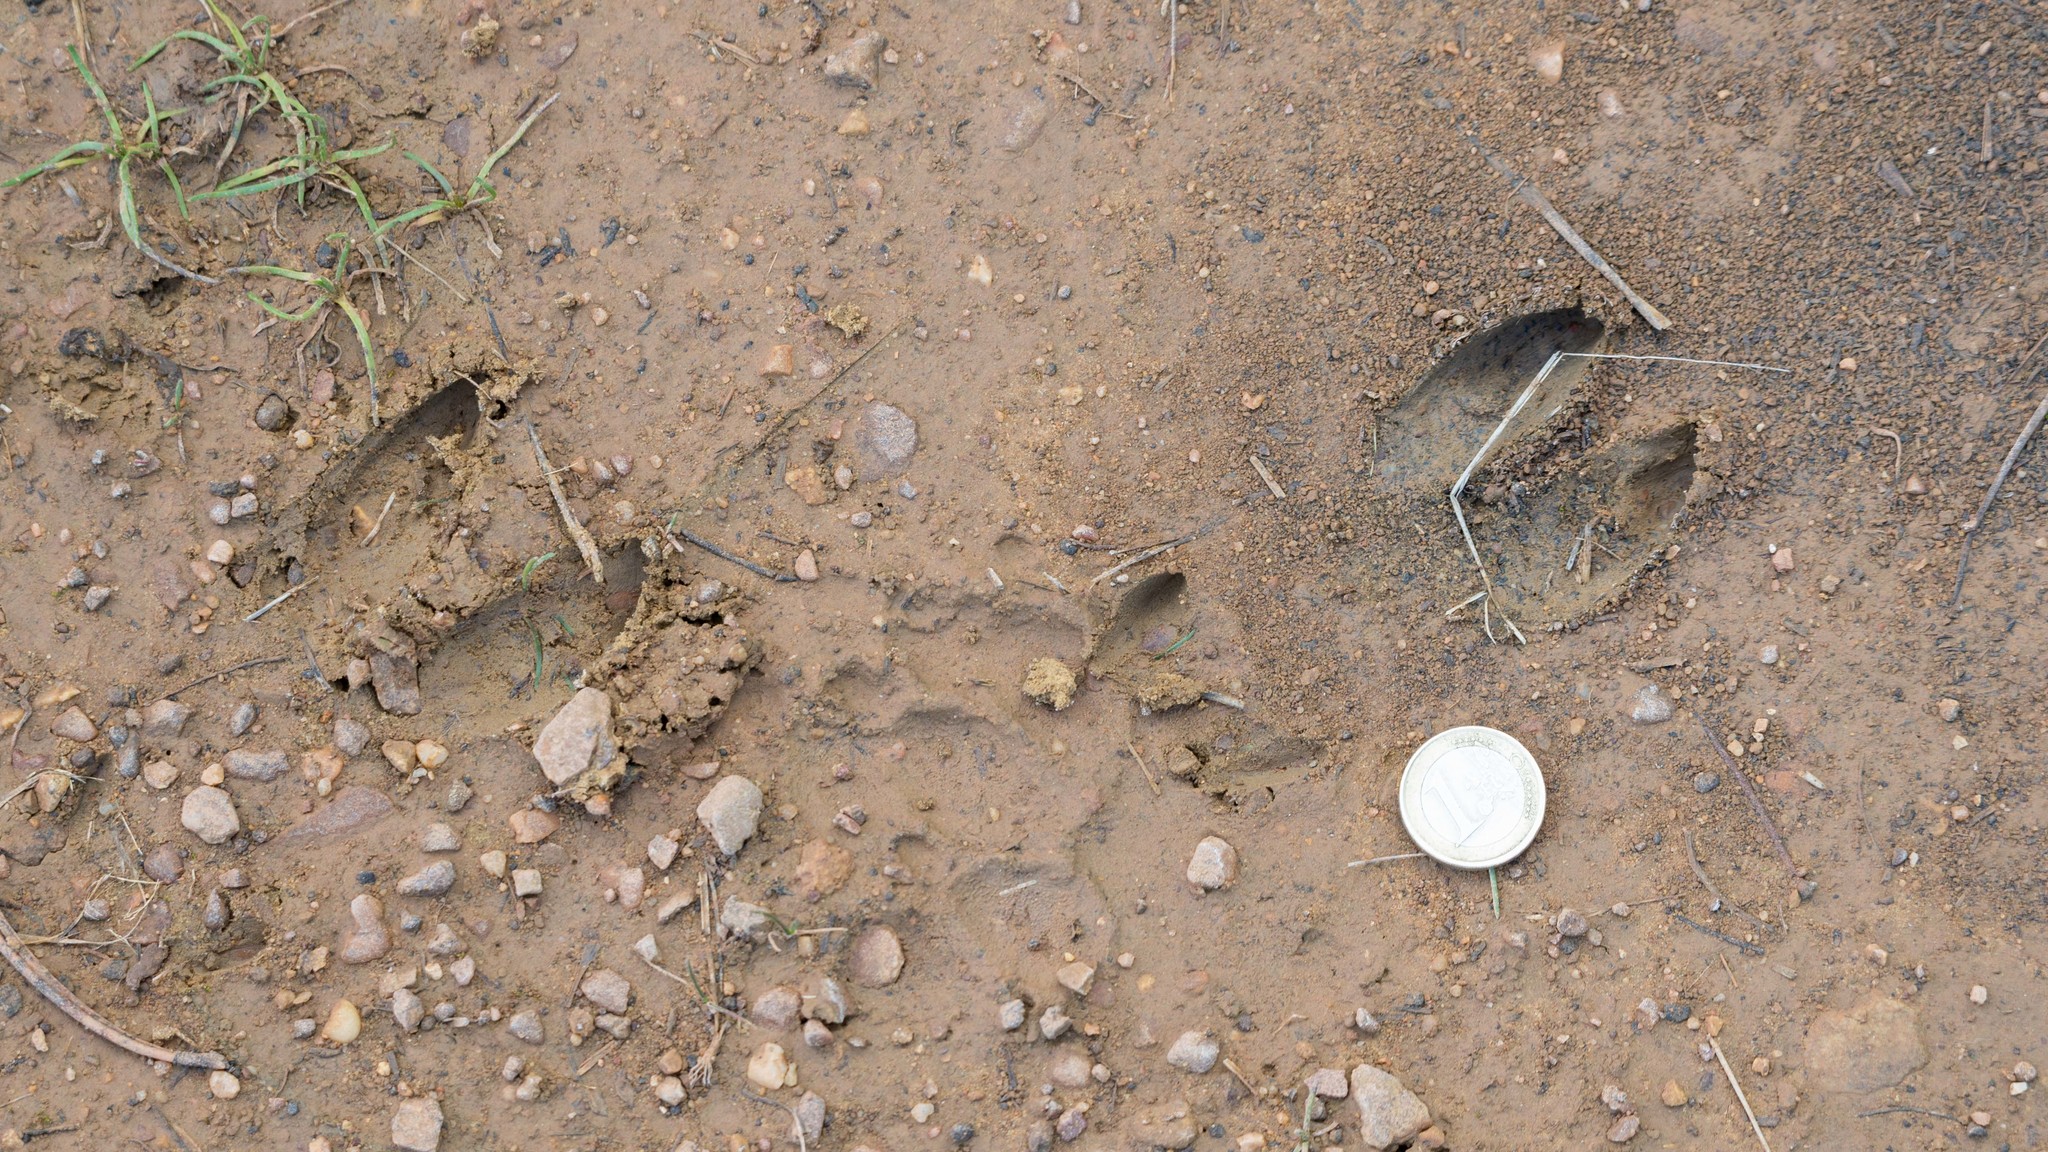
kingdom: Animalia
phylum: Chordata
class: Mammalia
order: Artiodactyla
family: Cervidae
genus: Capreolus
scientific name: Capreolus capreolus
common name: Western roe deer
